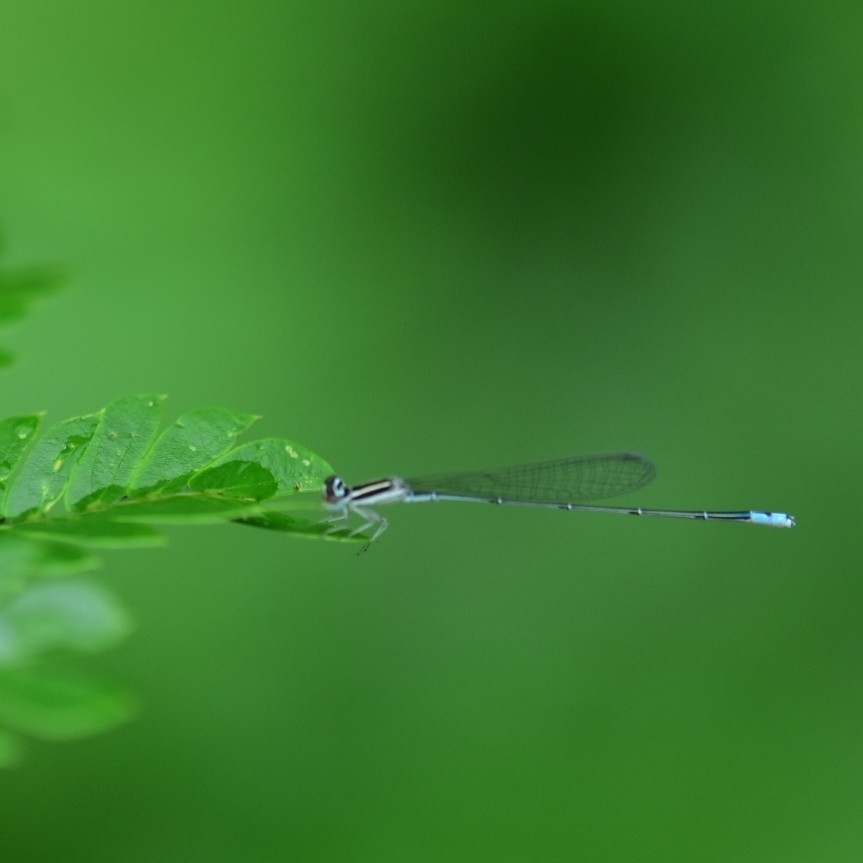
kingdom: Animalia
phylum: Arthropoda
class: Insecta
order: Odonata
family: Coenagrionidae
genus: Aciagrion
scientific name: Aciagrion occidentale
